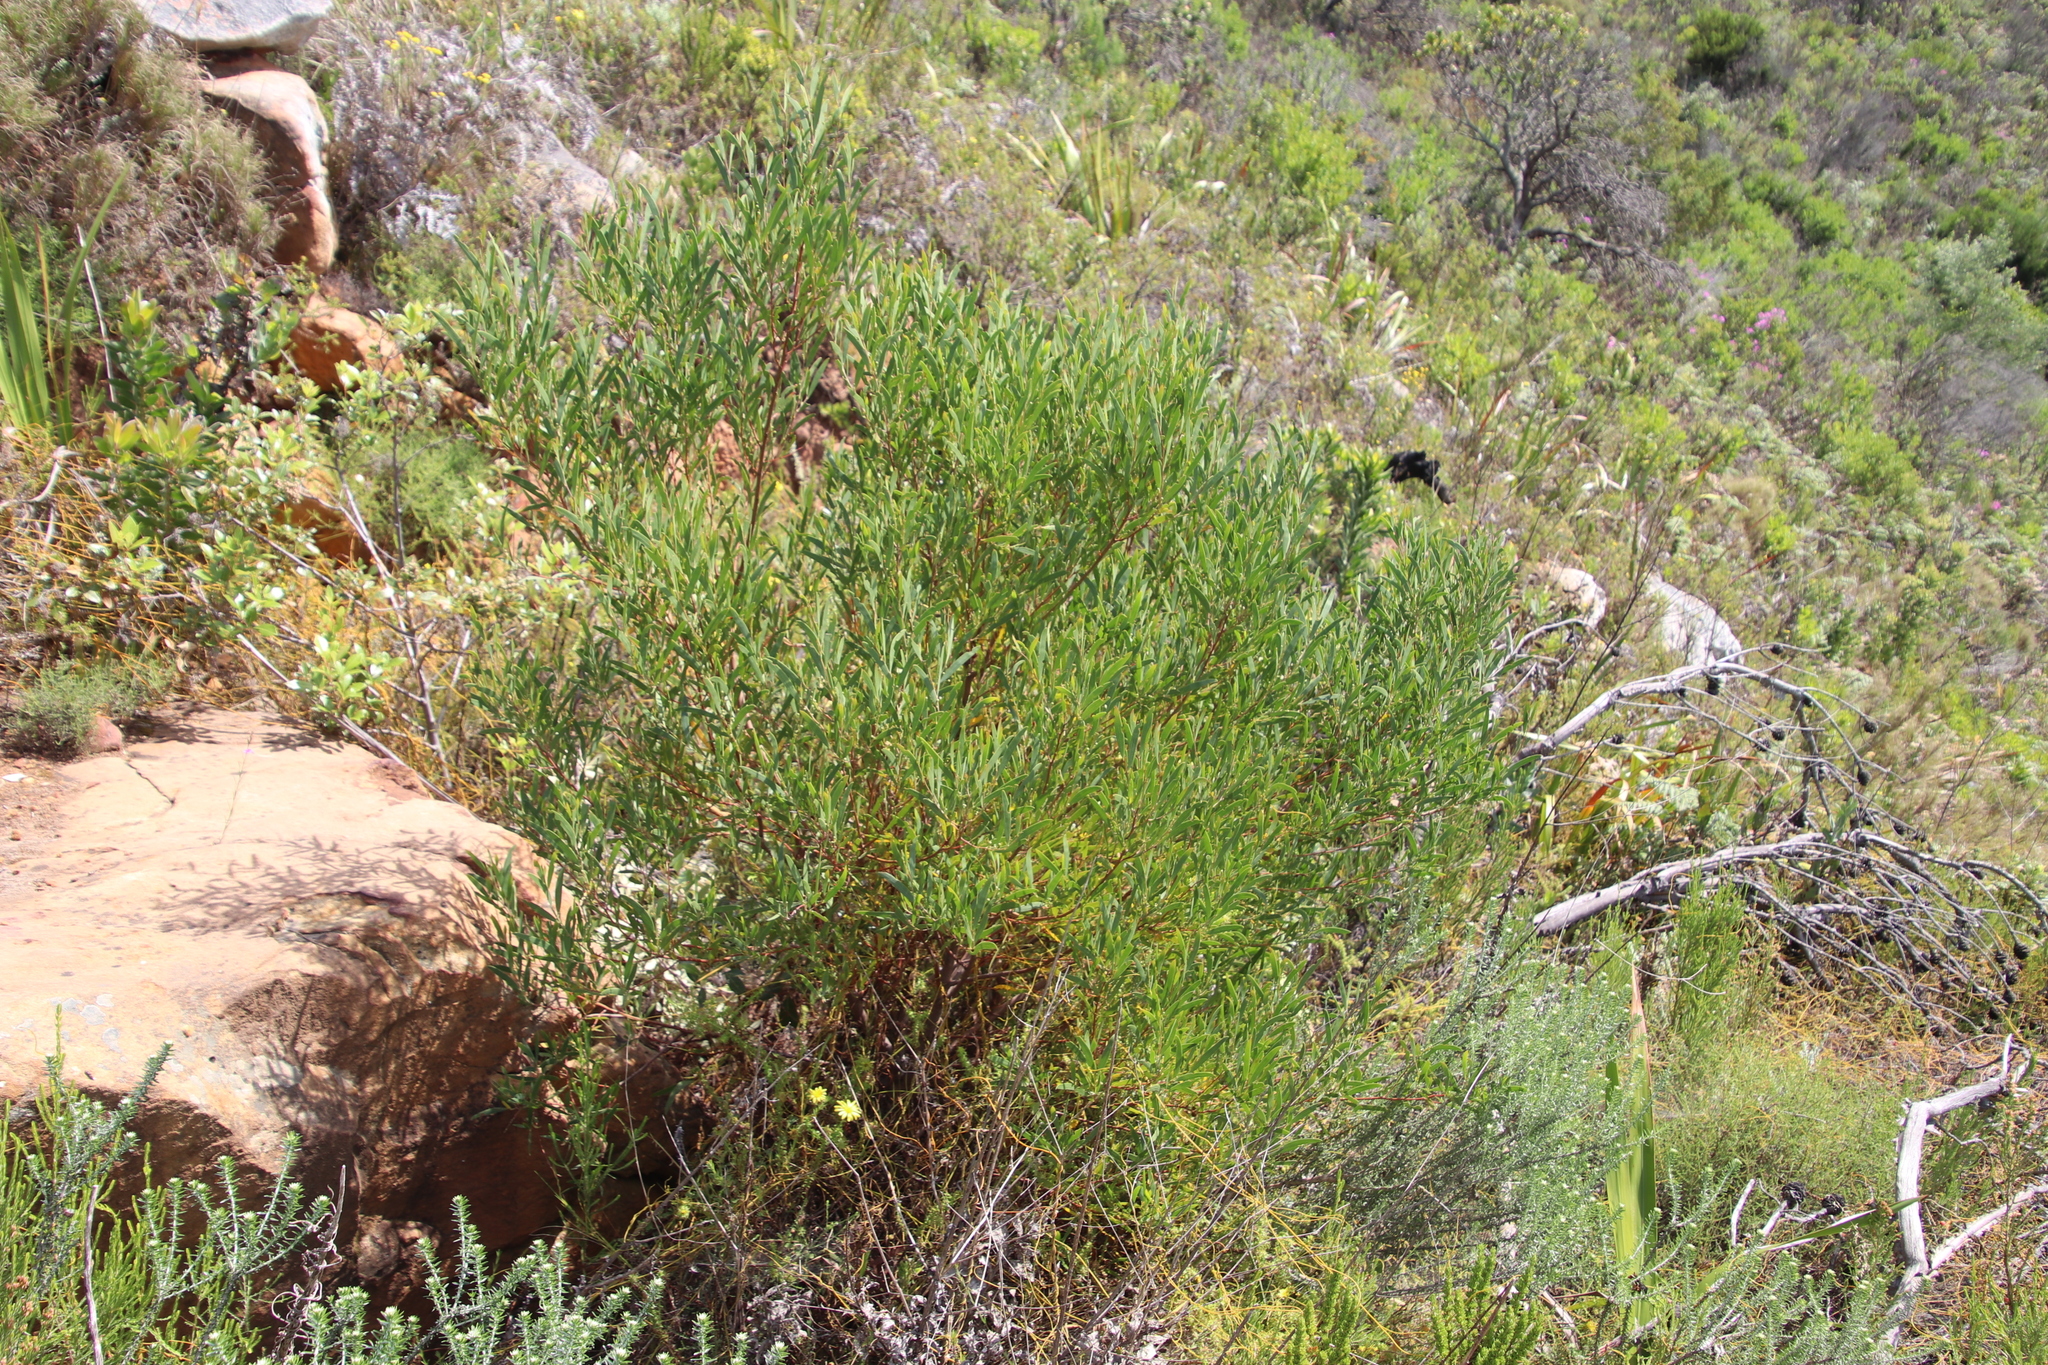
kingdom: Plantae
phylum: Tracheophyta
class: Magnoliopsida
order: Fabales
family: Fabaceae
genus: Acacia
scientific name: Acacia cyclops
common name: Coastal wattle
